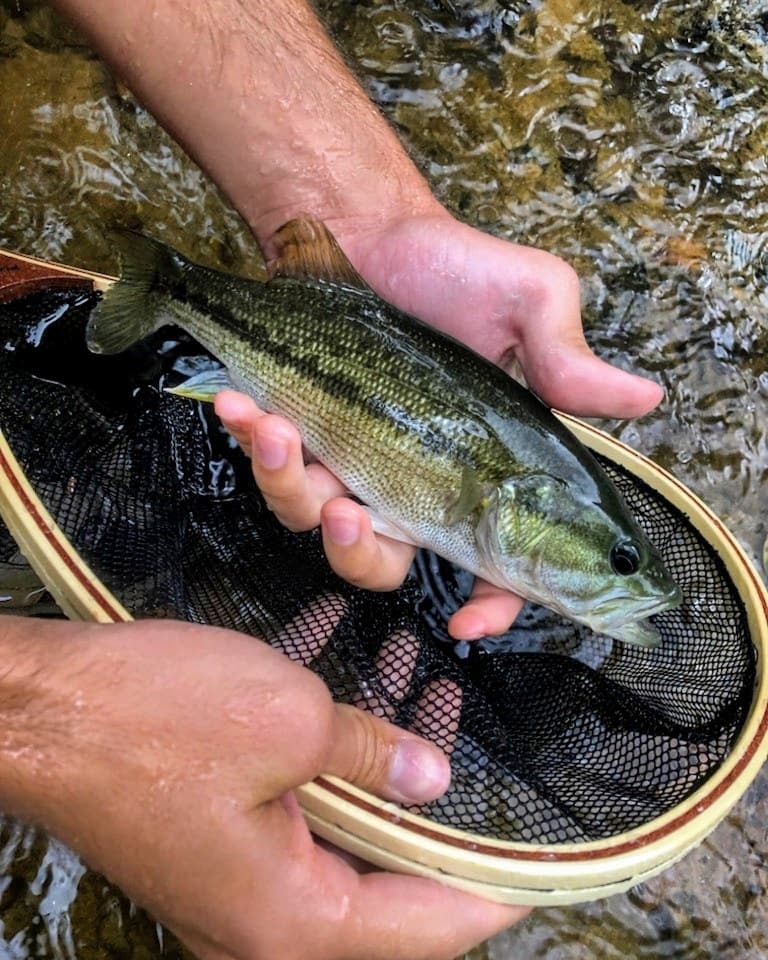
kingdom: Animalia
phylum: Chordata
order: Perciformes
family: Centrarchidae
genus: Micropterus
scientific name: Micropterus henshalli
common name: Alabama bass
